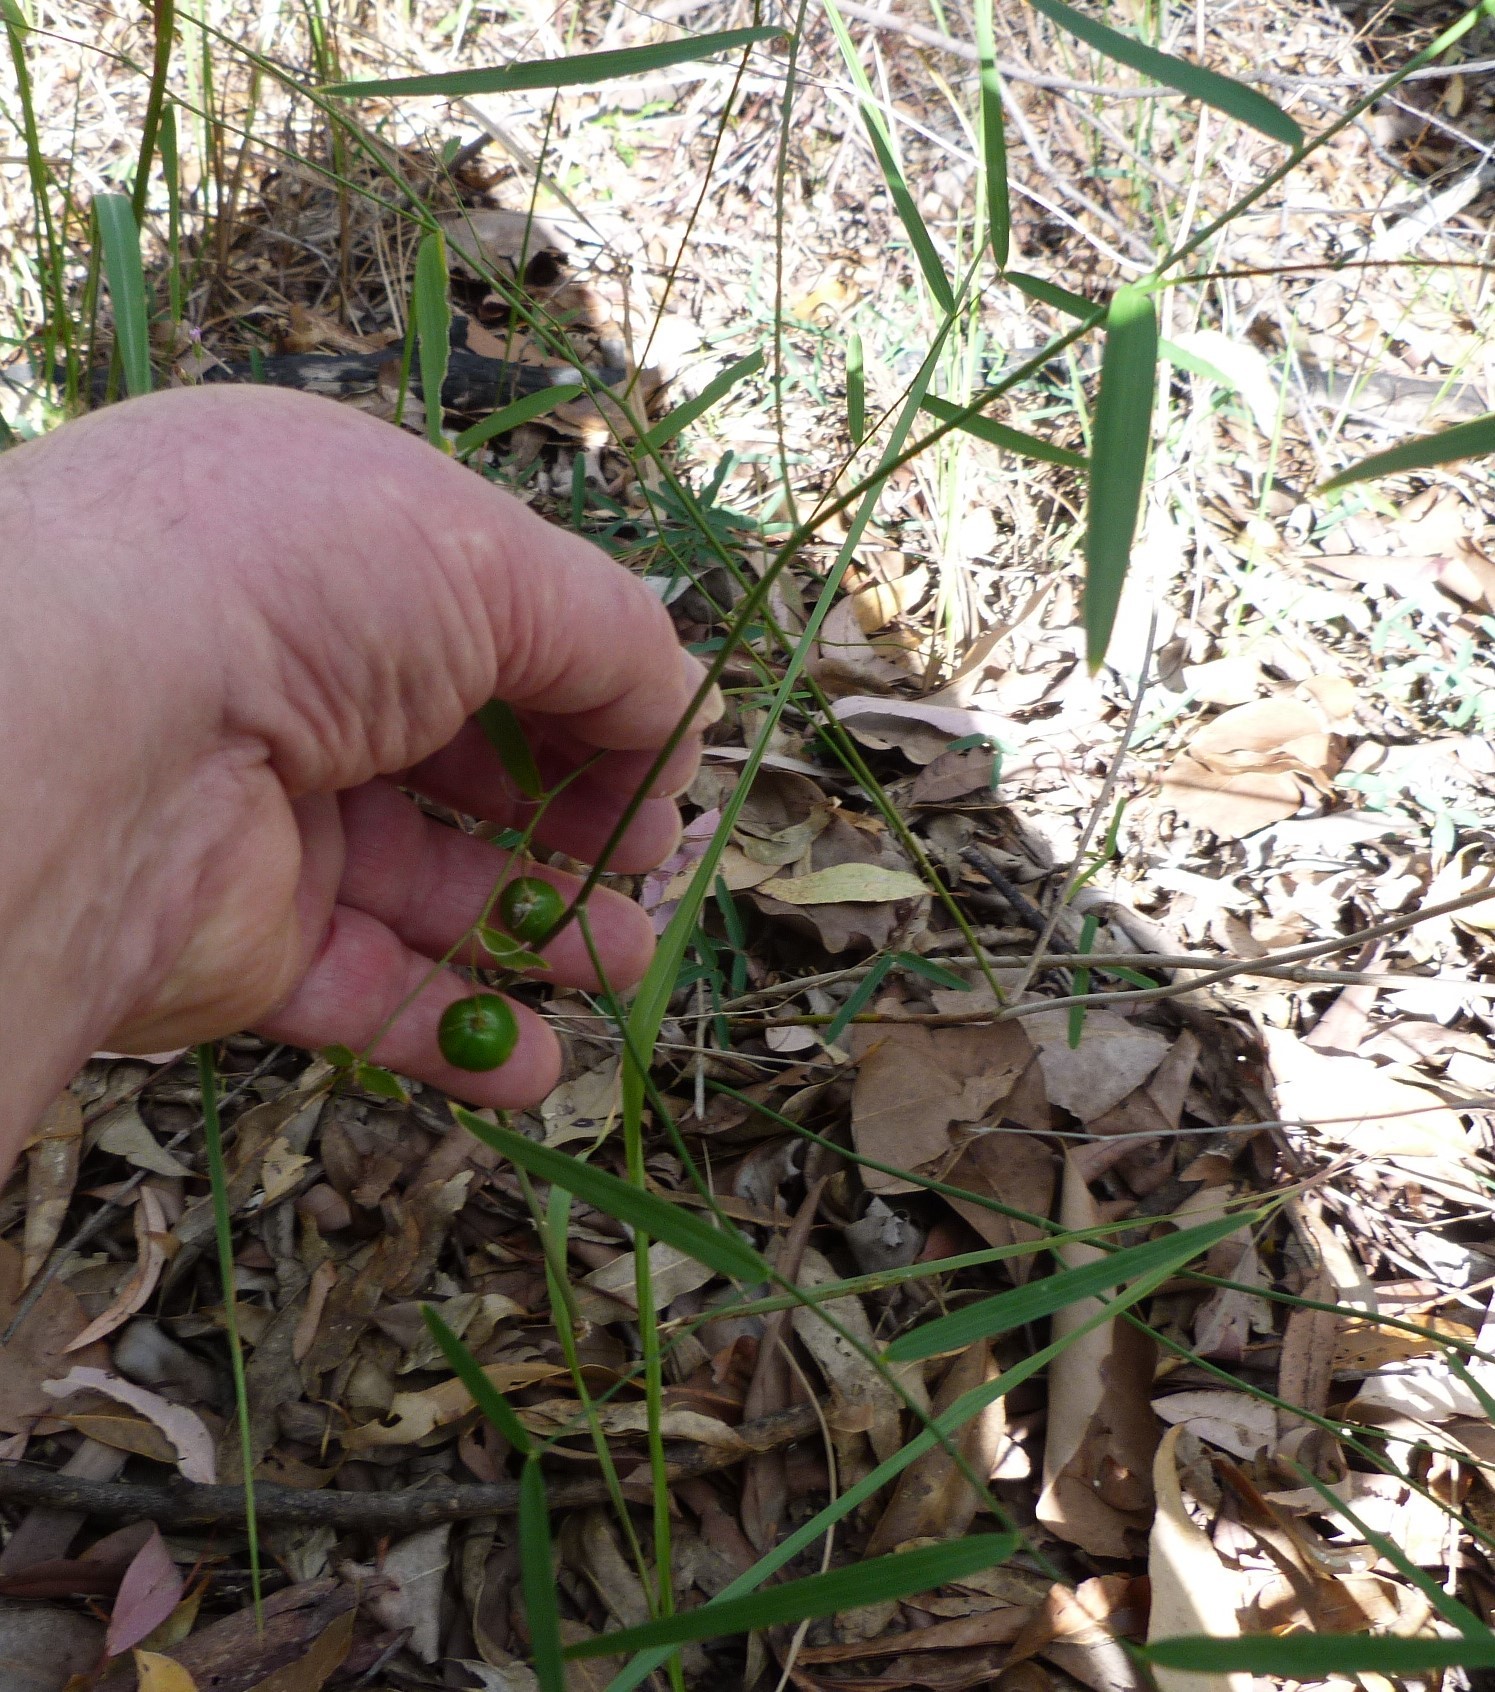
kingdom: Plantae
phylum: Tracheophyta
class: Liliopsida
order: Asparagales
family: Asparagaceae
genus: Eustrephus
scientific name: Eustrephus latifolius
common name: Orangevine
